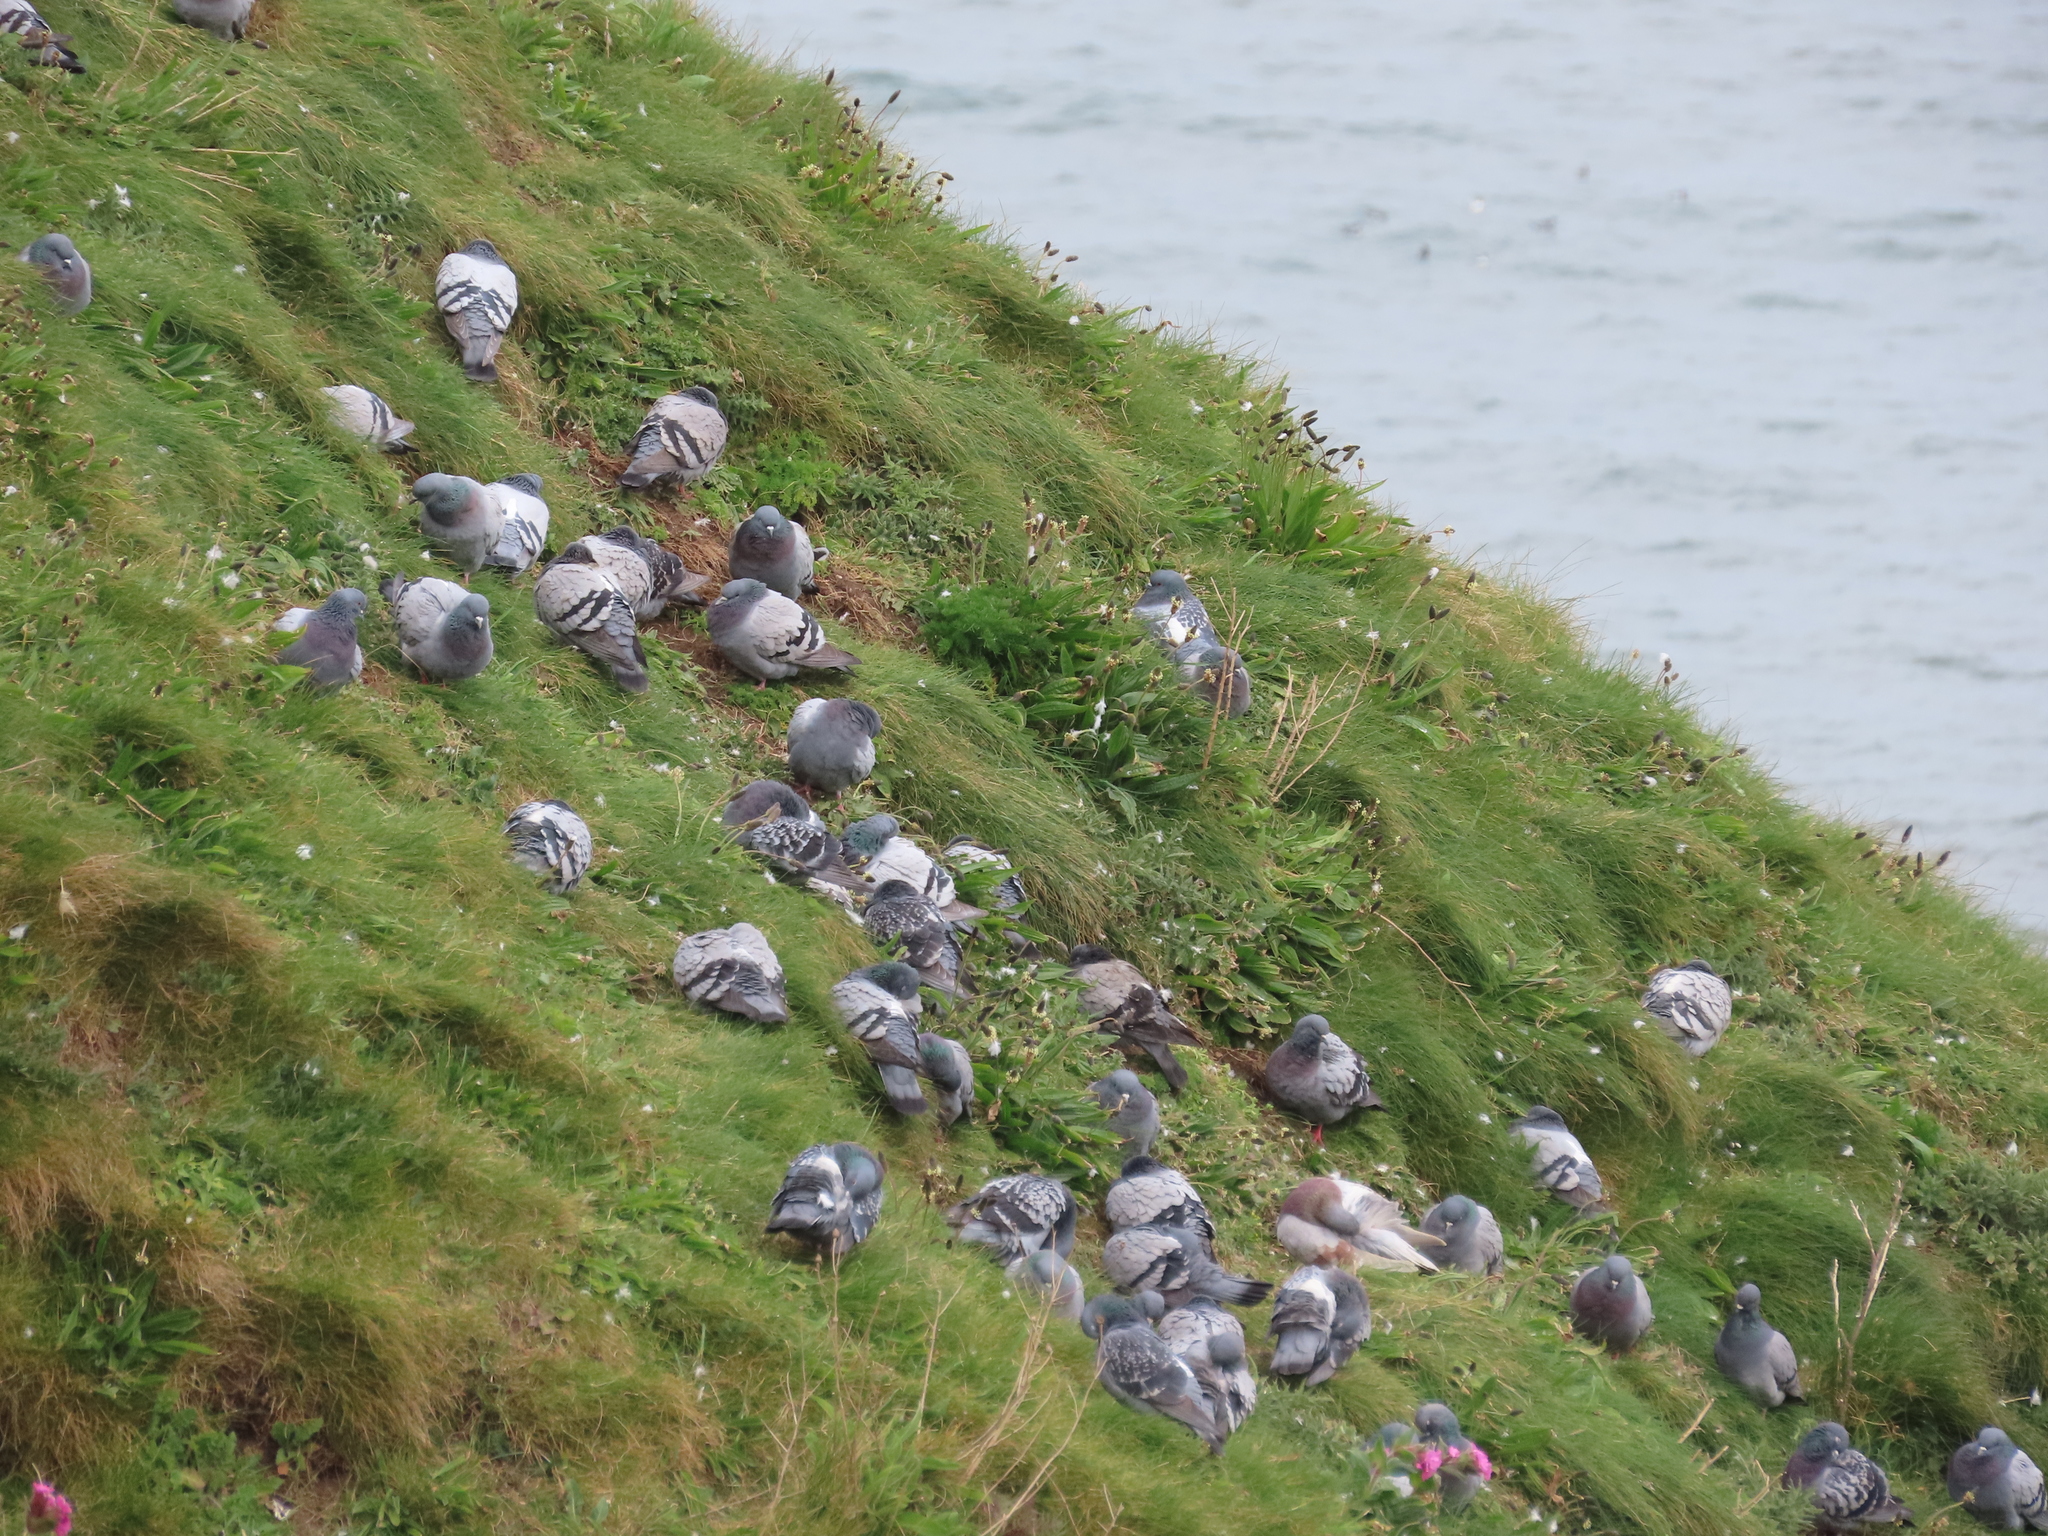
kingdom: Animalia
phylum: Chordata
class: Aves
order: Columbiformes
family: Columbidae
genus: Columba
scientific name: Columba livia
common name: Rock pigeon
